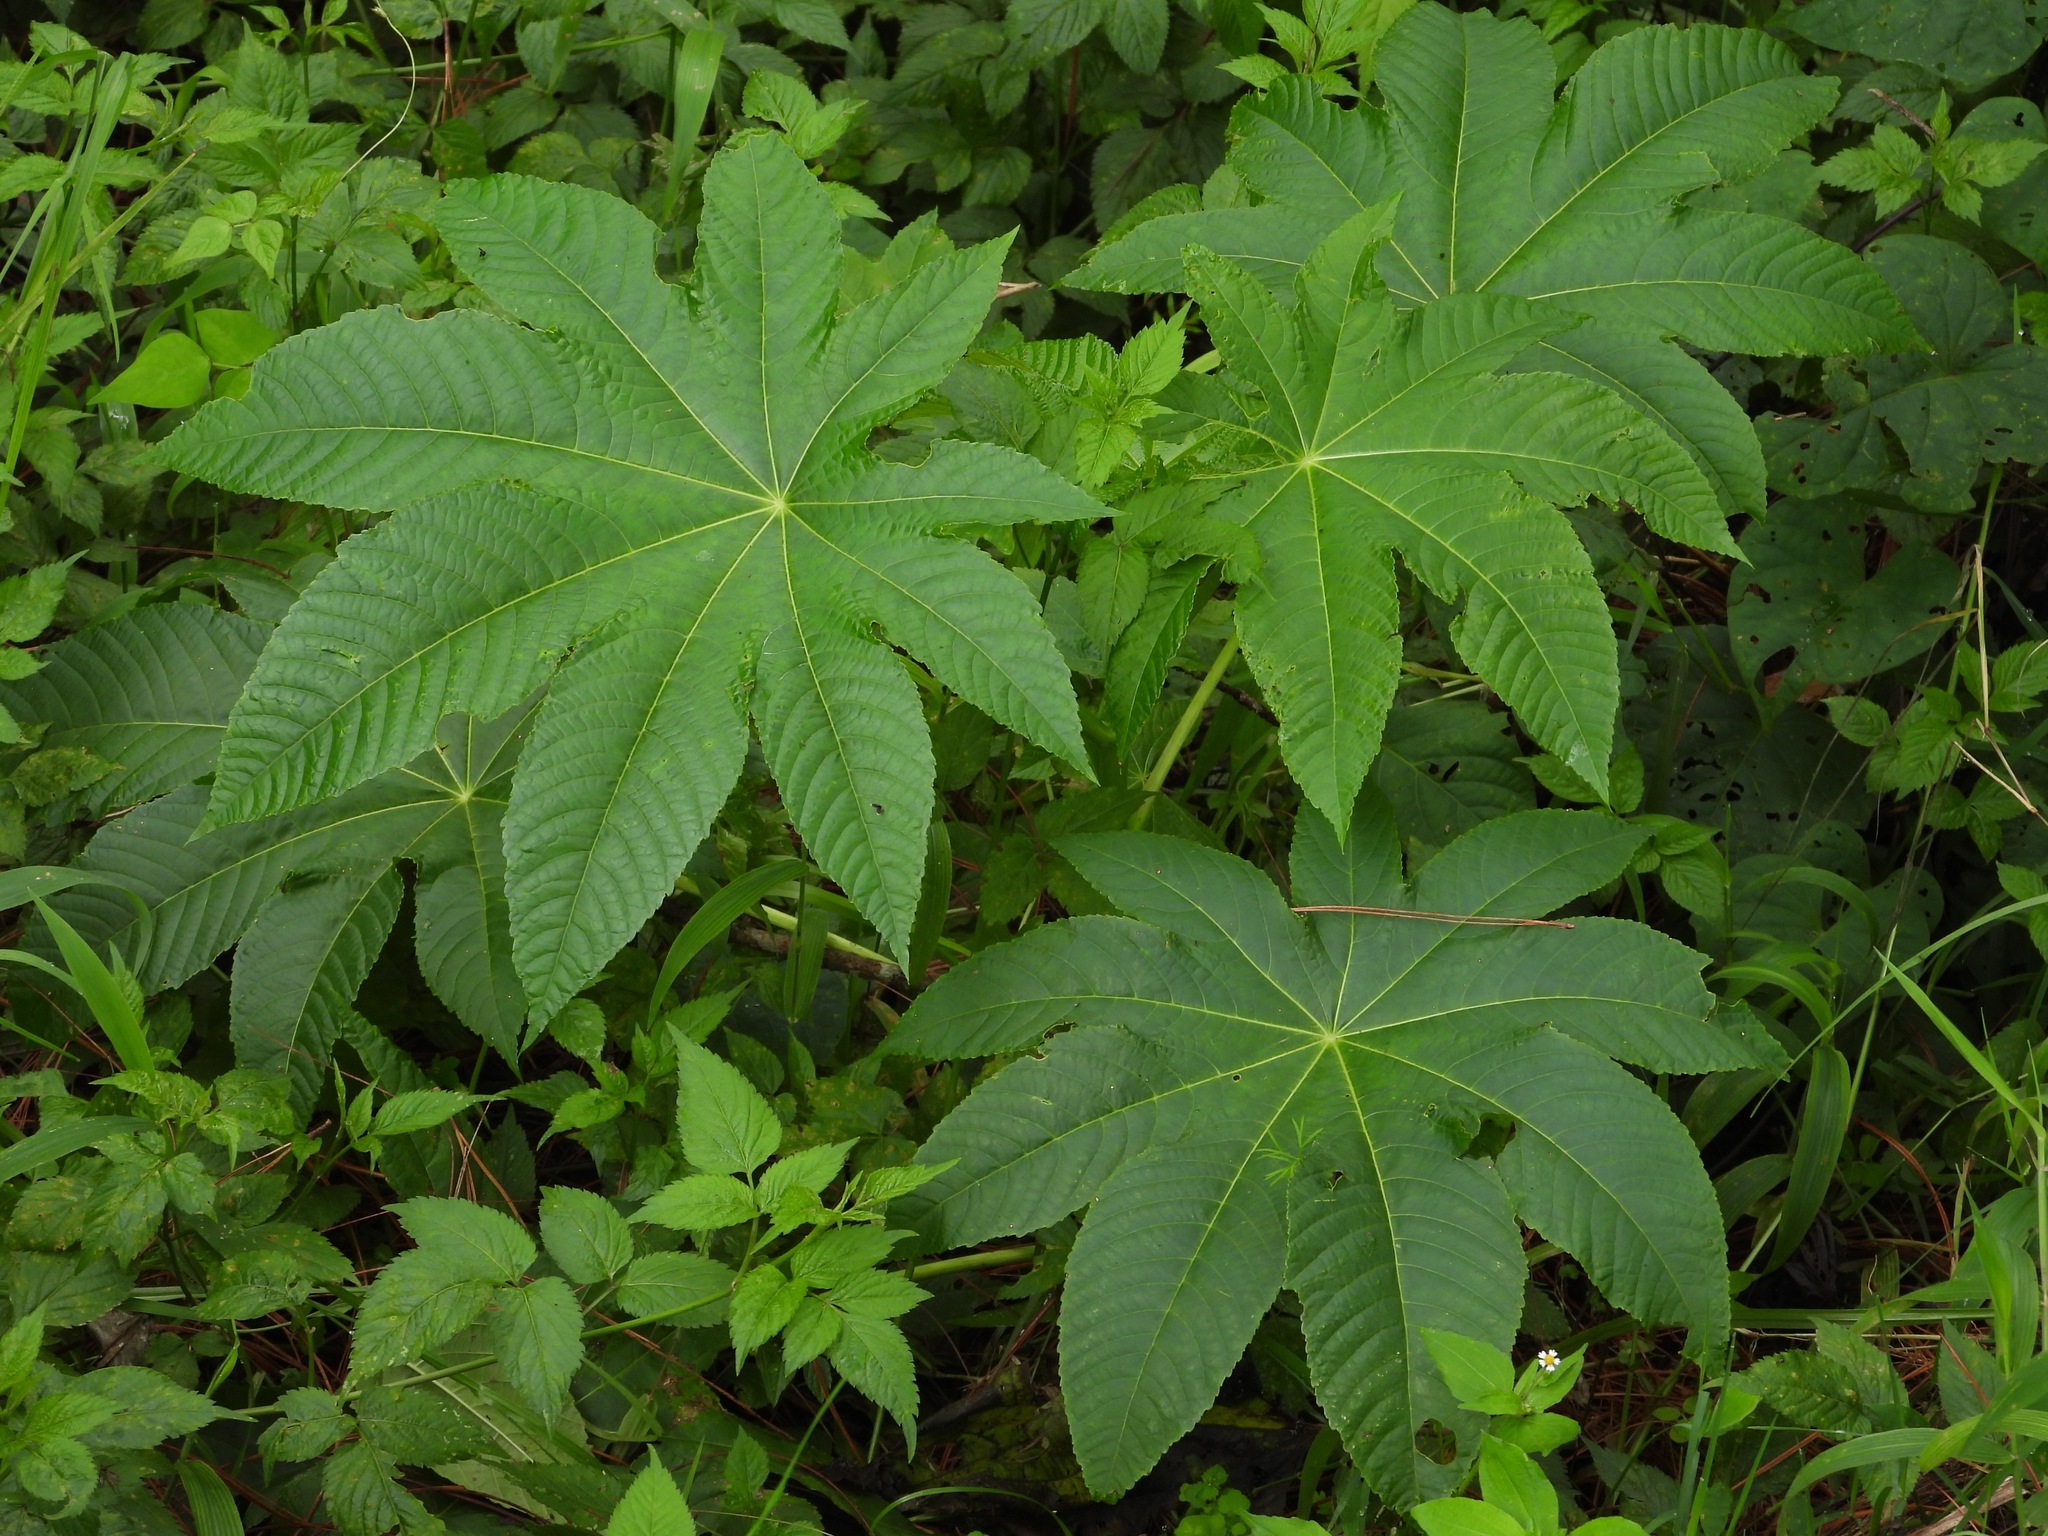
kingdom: Plantae
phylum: Tracheophyta
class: Magnoliopsida
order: Malpighiales
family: Euphorbiaceae
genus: Ricinus
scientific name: Ricinus communis
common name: Castor-oil-plant
